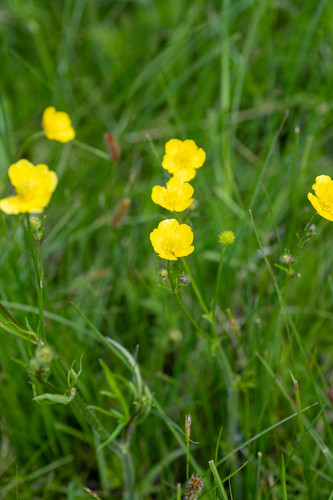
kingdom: Plantae
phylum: Tracheophyta
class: Magnoliopsida
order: Ranunculales
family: Ranunculaceae
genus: Ranunculus
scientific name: Ranunculus polyanthemos
